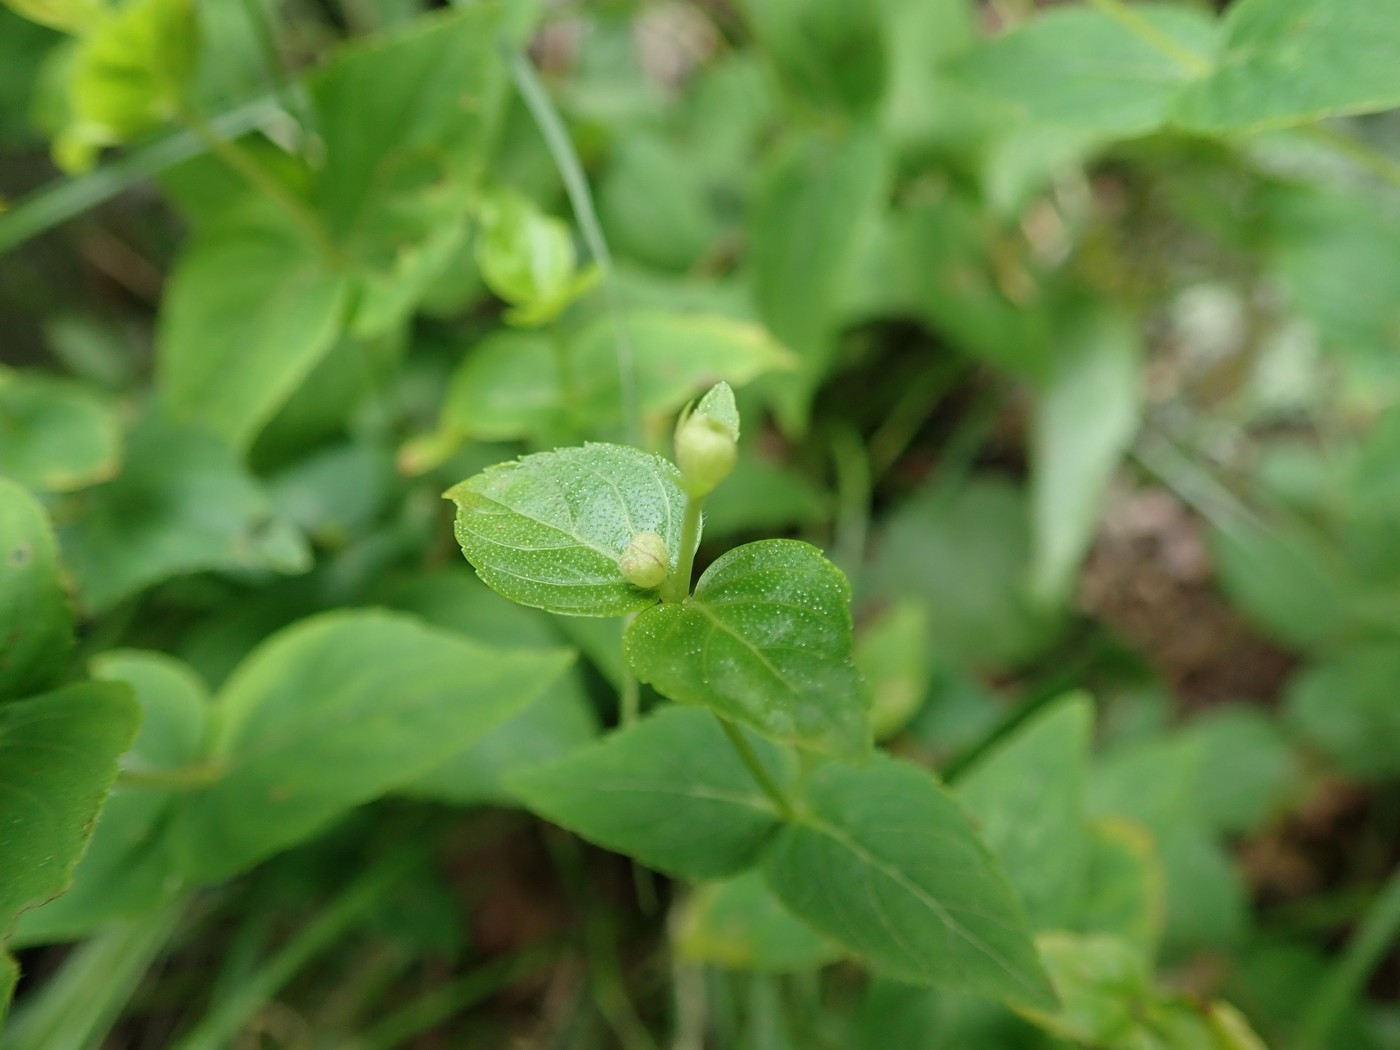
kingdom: Plantae
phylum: Tracheophyta
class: Magnoliopsida
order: Lamiales
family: Lamiaceae
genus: Cunila
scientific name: Cunila origanoides
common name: American dittany
